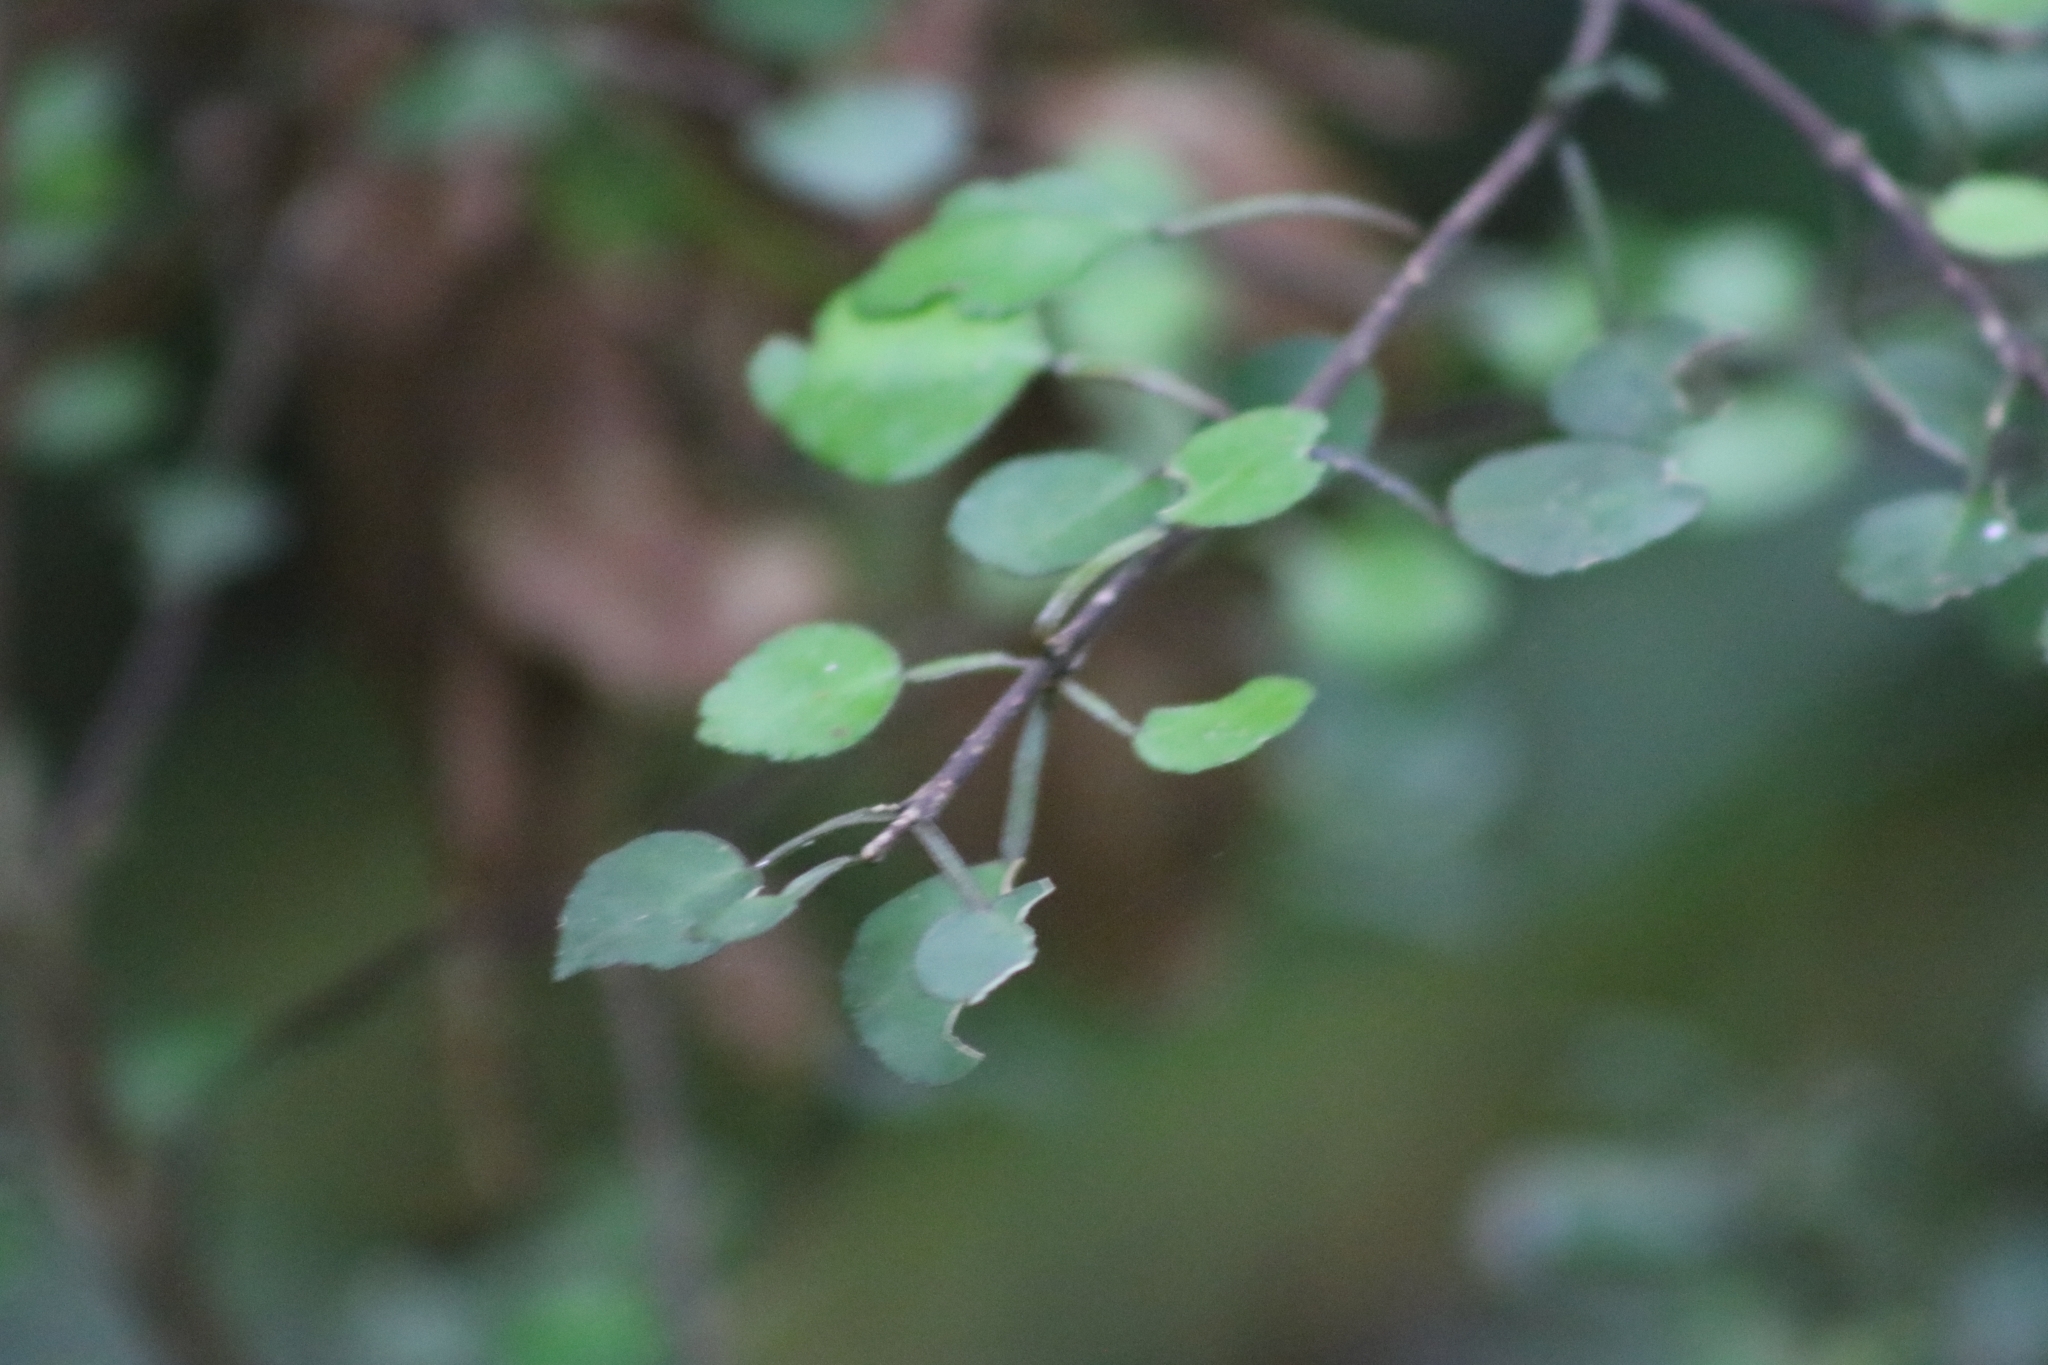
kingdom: Plantae
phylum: Tracheophyta
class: Magnoliopsida
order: Sapindales
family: Rutaceae
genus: Melicope
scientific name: Melicope simplex
